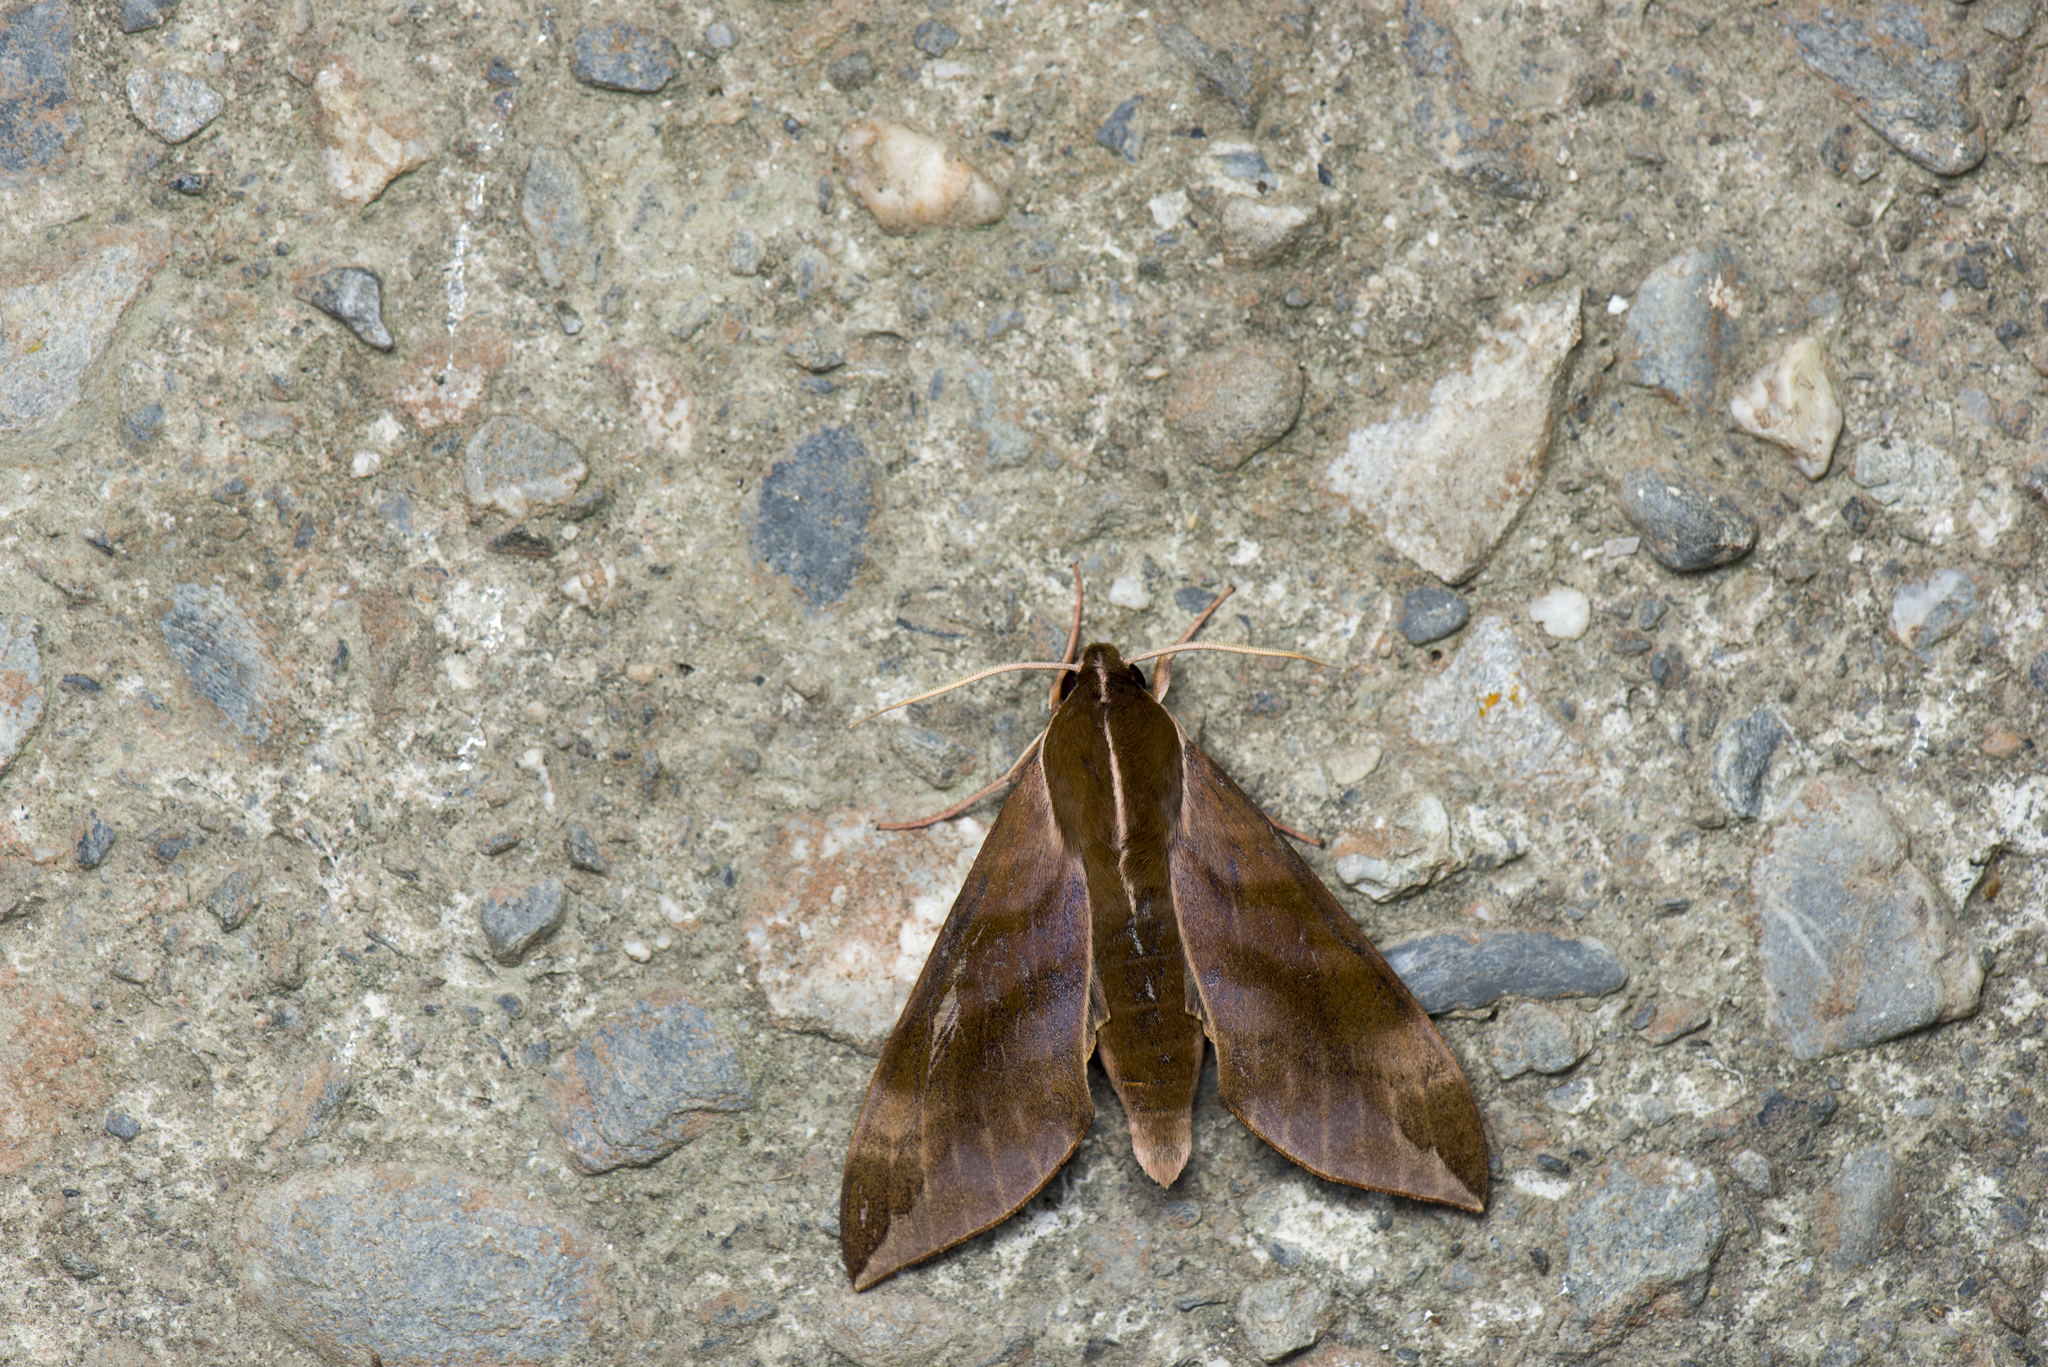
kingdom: Animalia
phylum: Arthropoda
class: Insecta
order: Lepidoptera
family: Sphingidae
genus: Ampelophaga
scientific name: Ampelophaga rubiginosa
